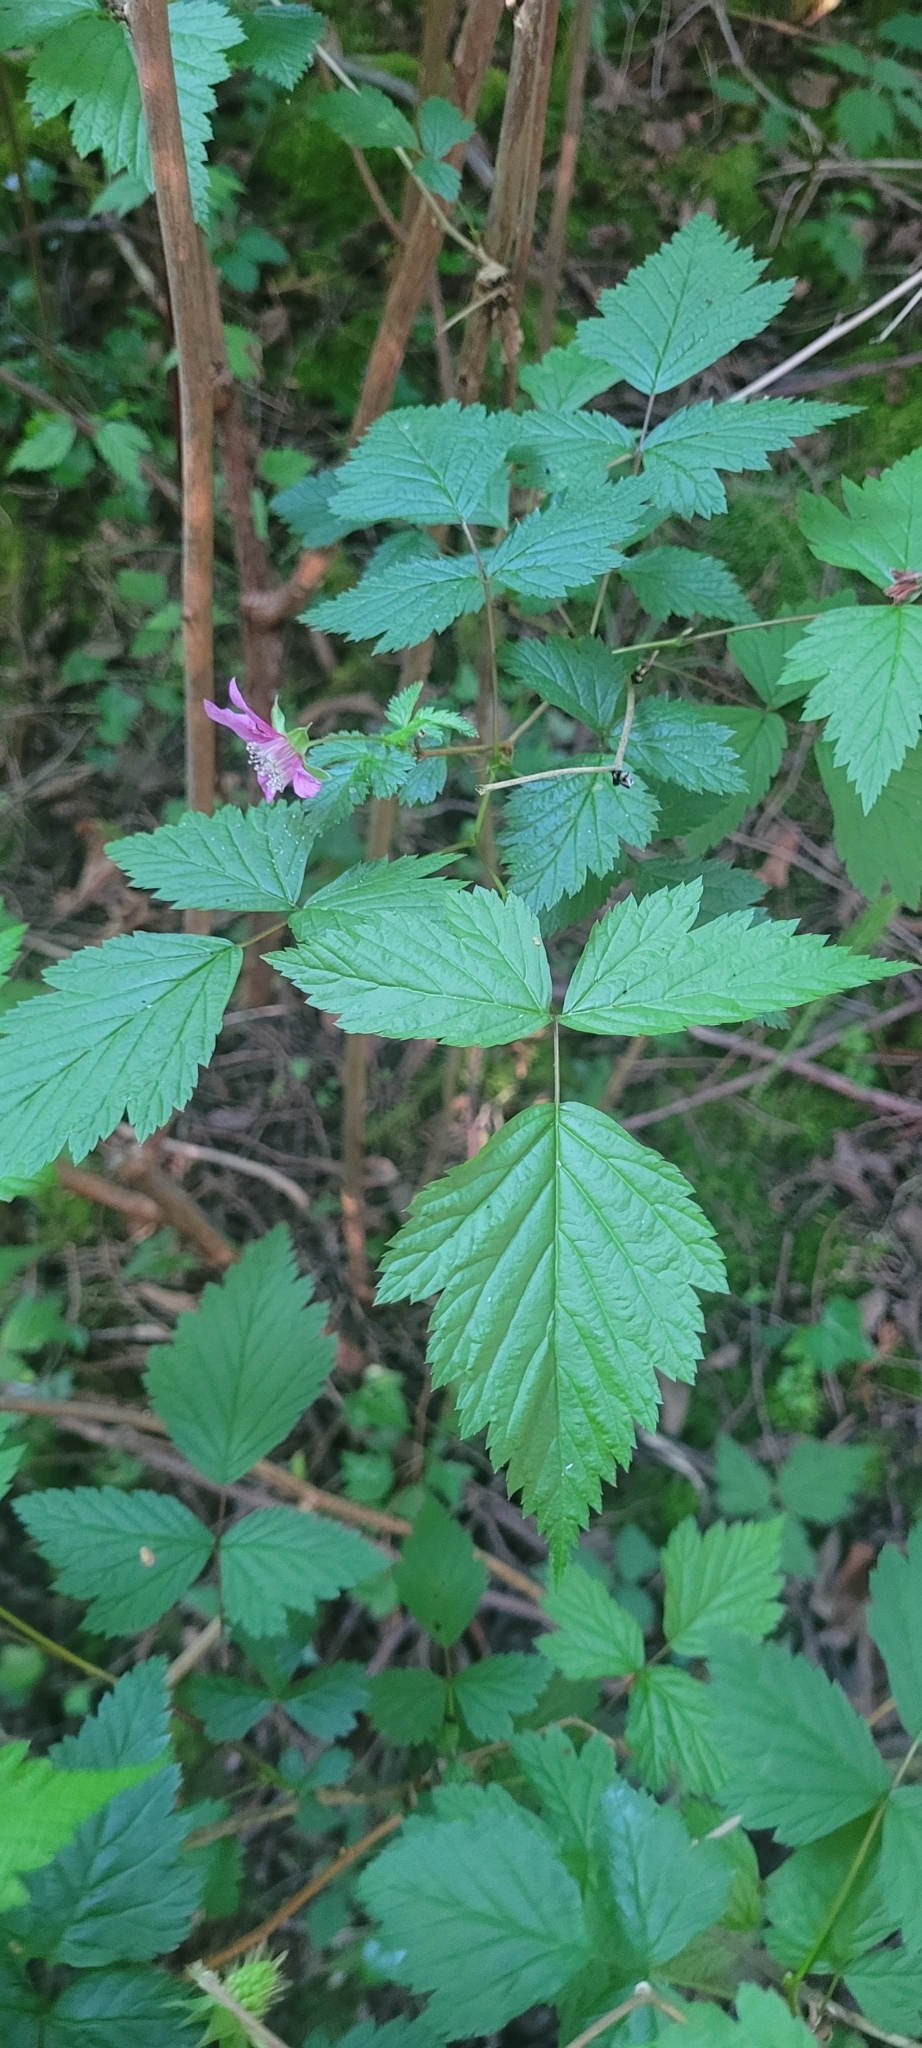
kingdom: Plantae
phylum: Tracheophyta
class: Magnoliopsida
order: Rosales
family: Rosaceae
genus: Rubus
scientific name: Rubus spectabilis
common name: Salmonberry
